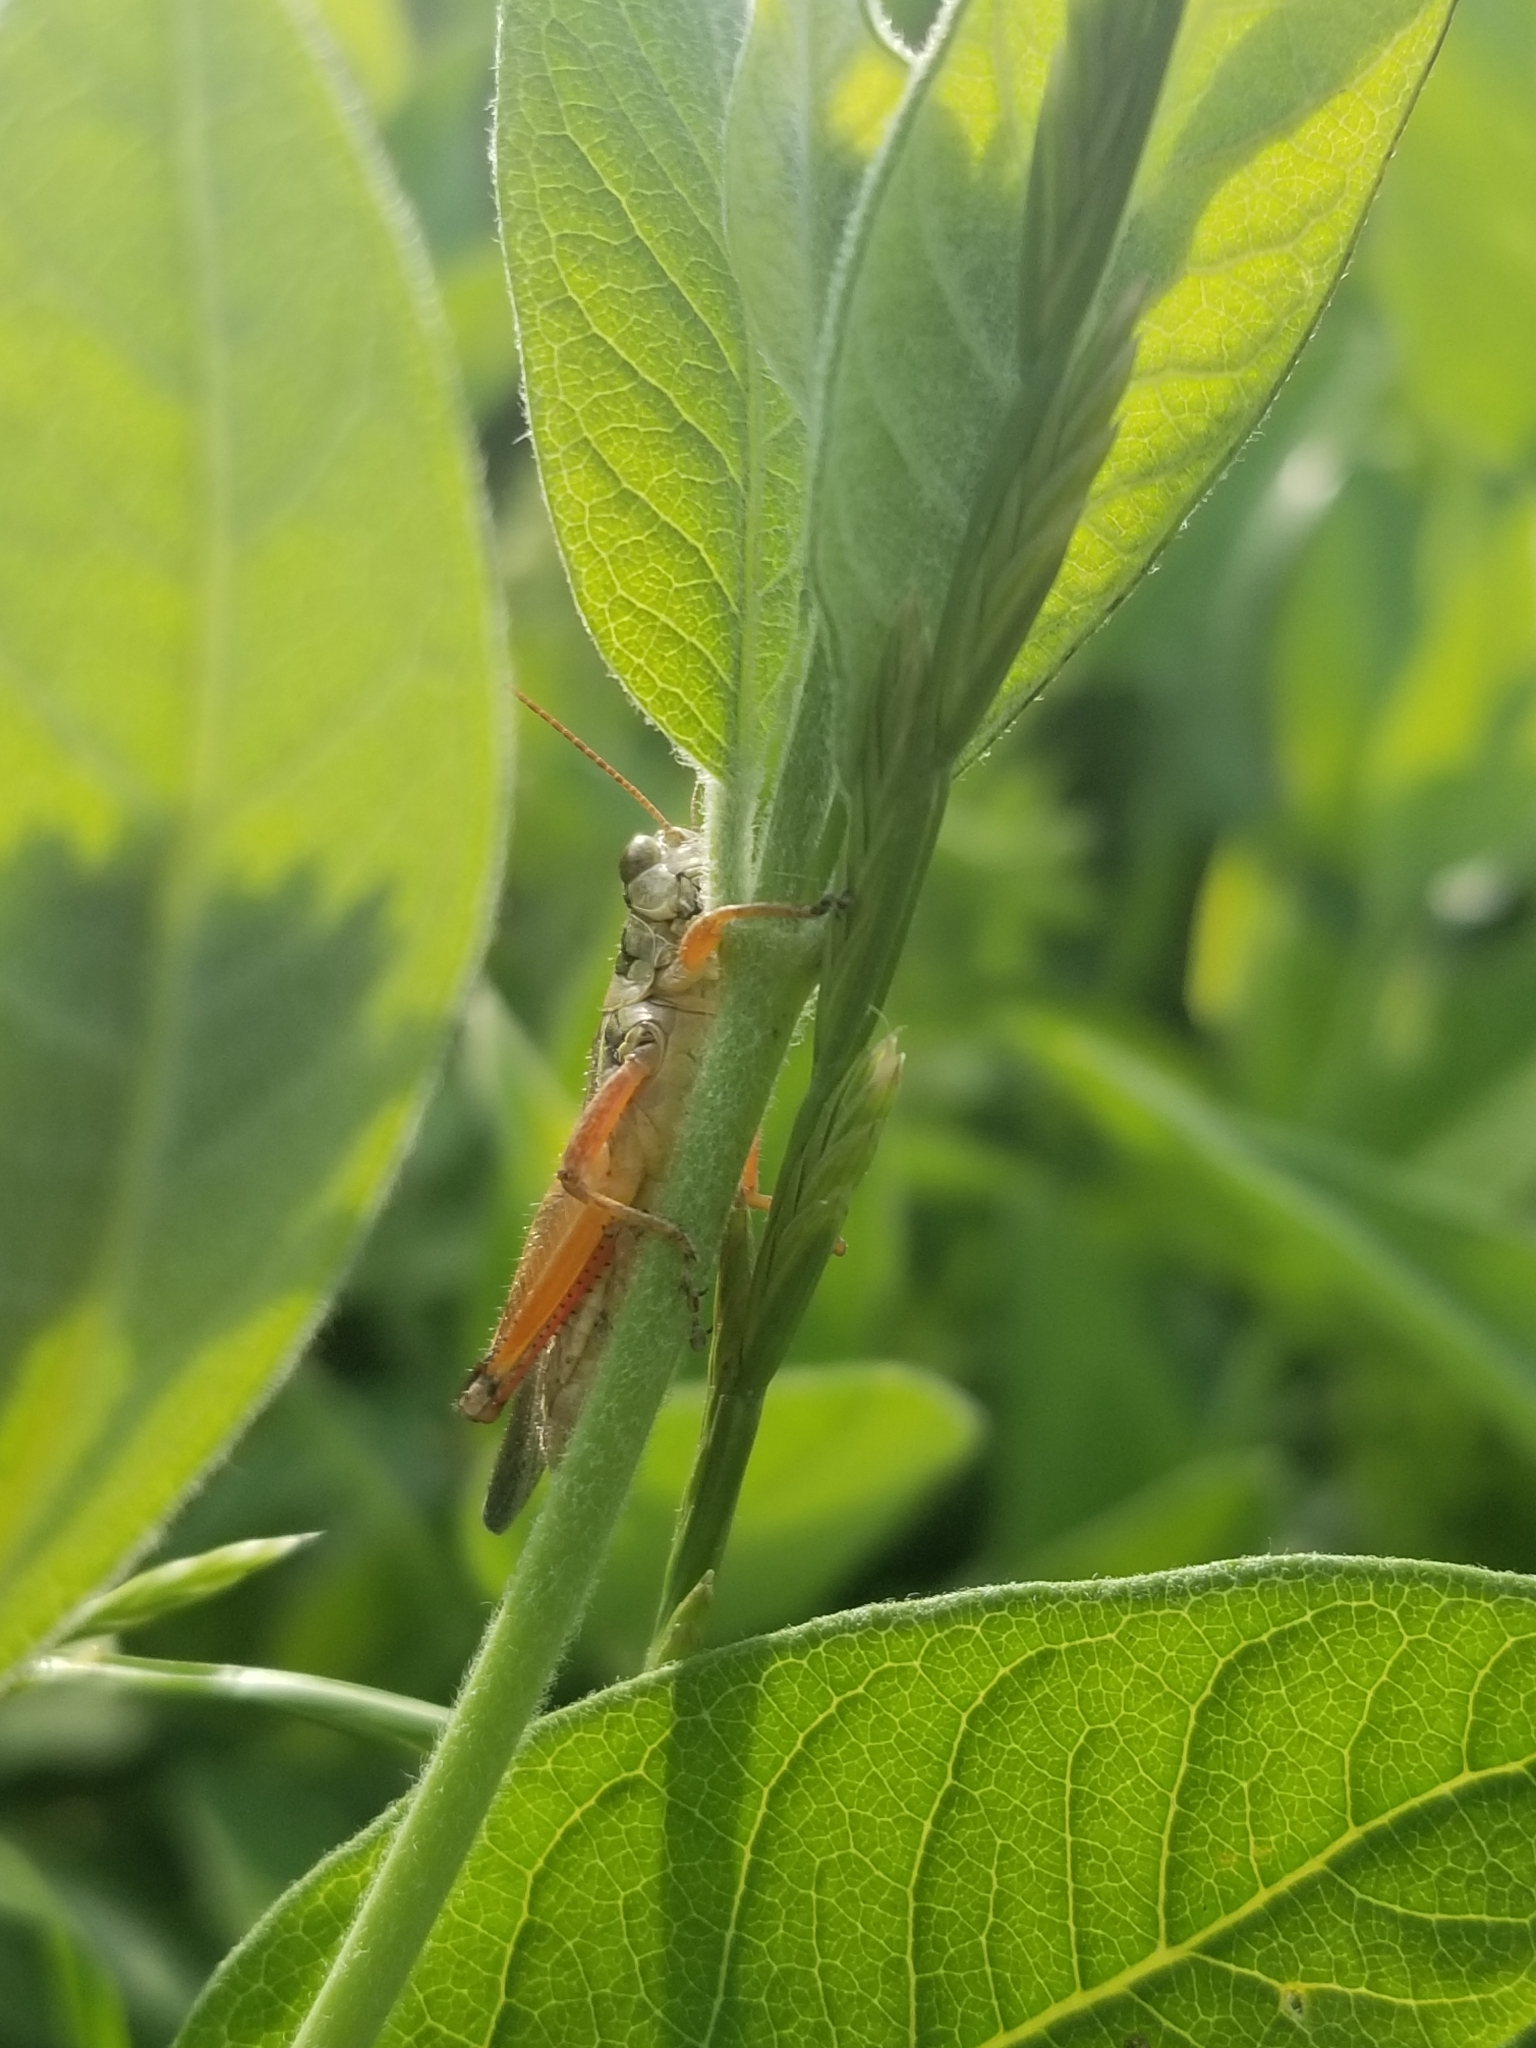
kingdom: Animalia
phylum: Arthropoda
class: Insecta
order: Orthoptera
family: Acrididae
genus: Melanoplus
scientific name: Melanoplus
